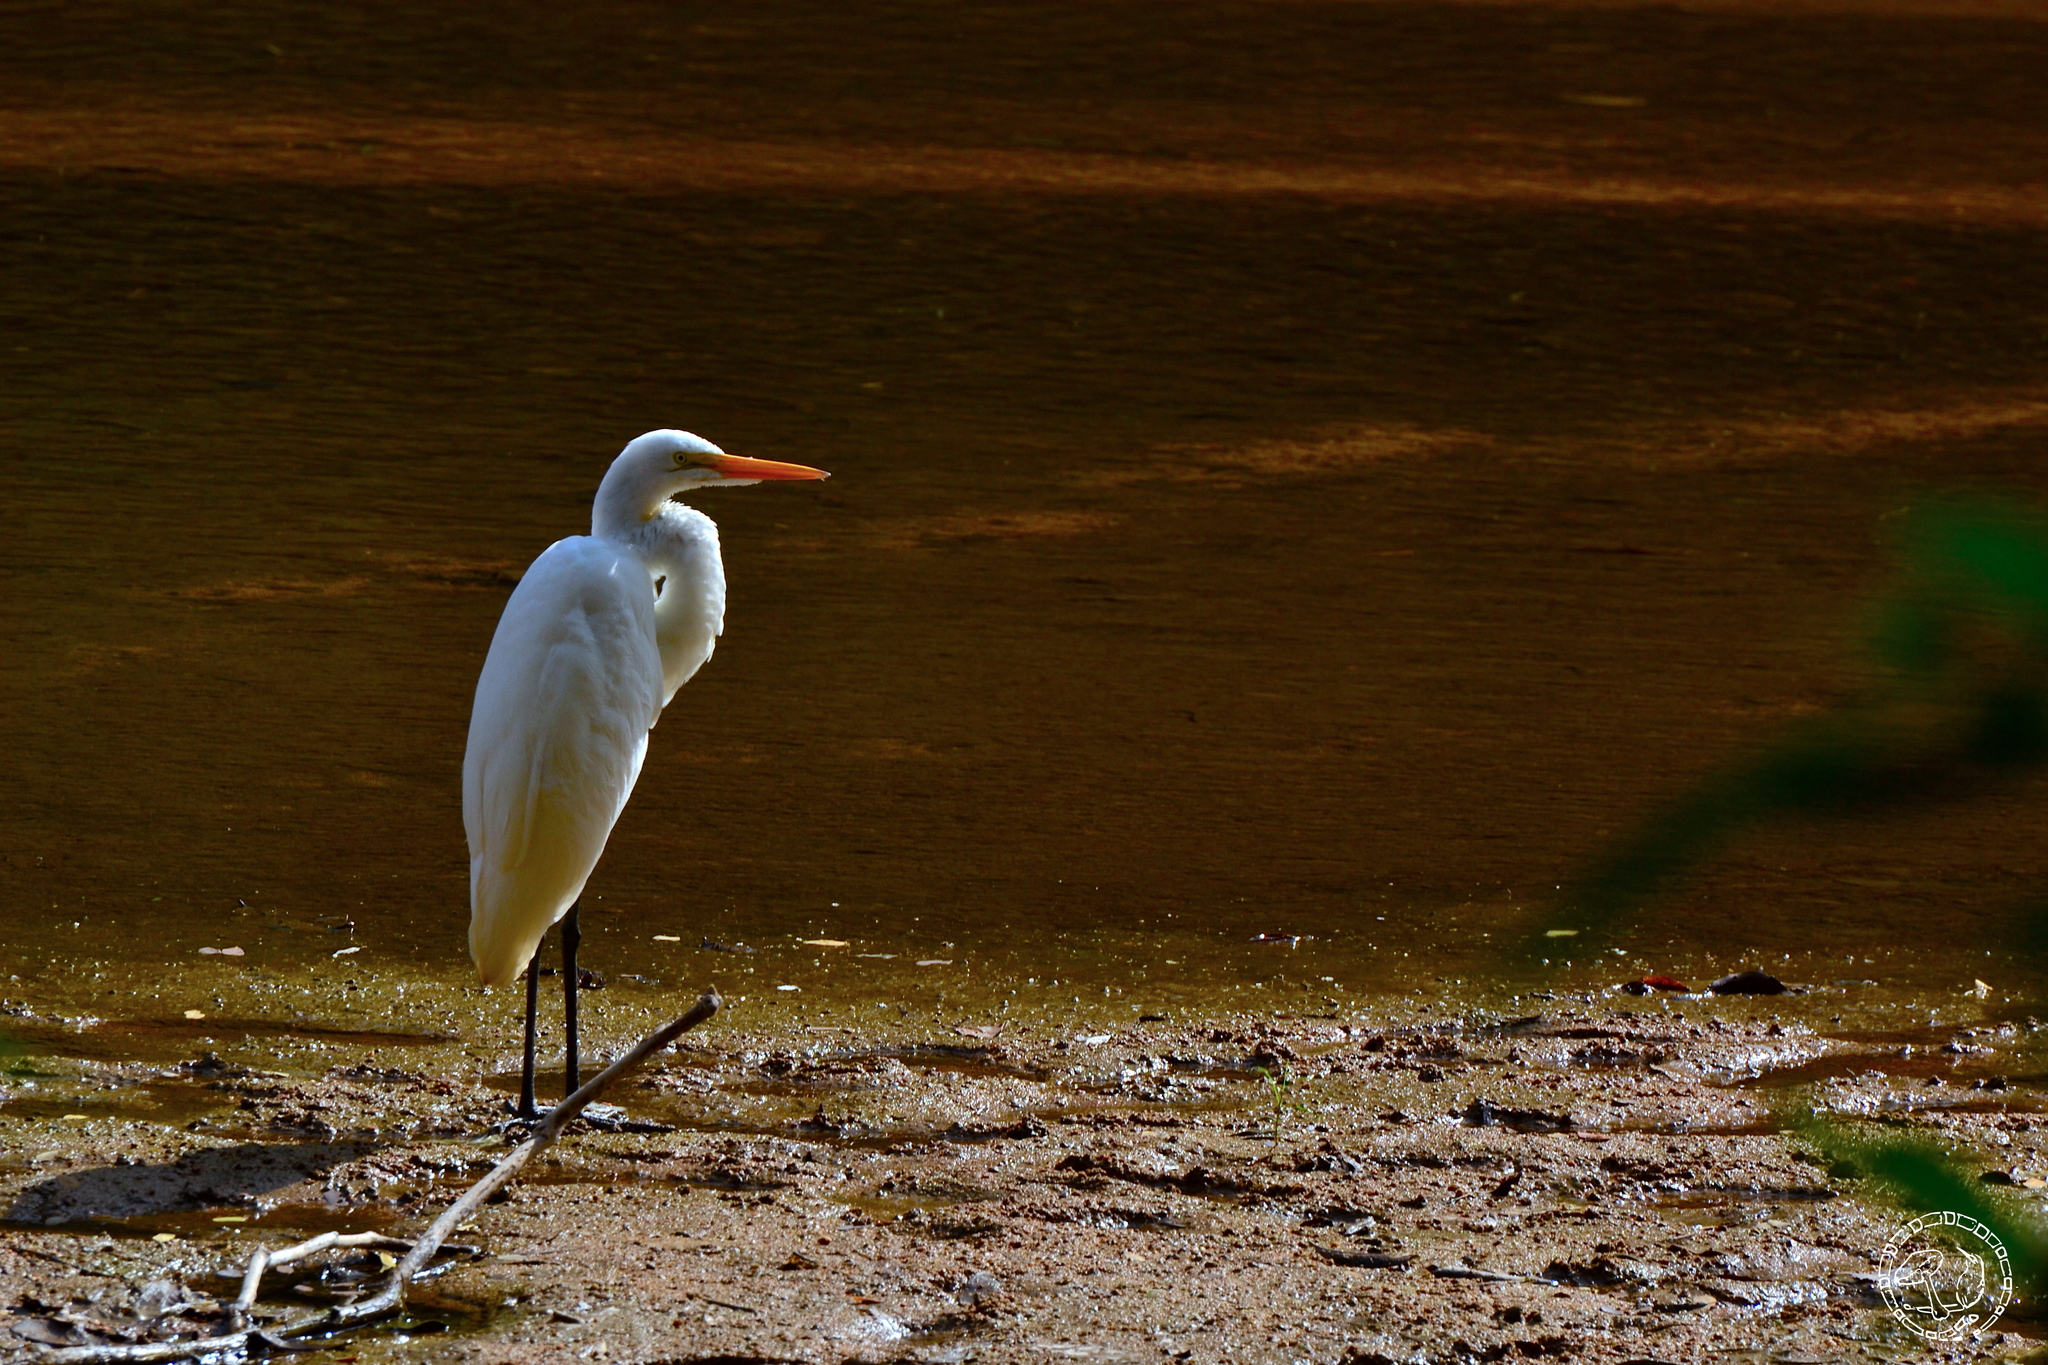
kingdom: Animalia
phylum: Chordata
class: Aves
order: Pelecaniformes
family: Ardeidae
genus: Ardea
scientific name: Ardea alba
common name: Great egret
